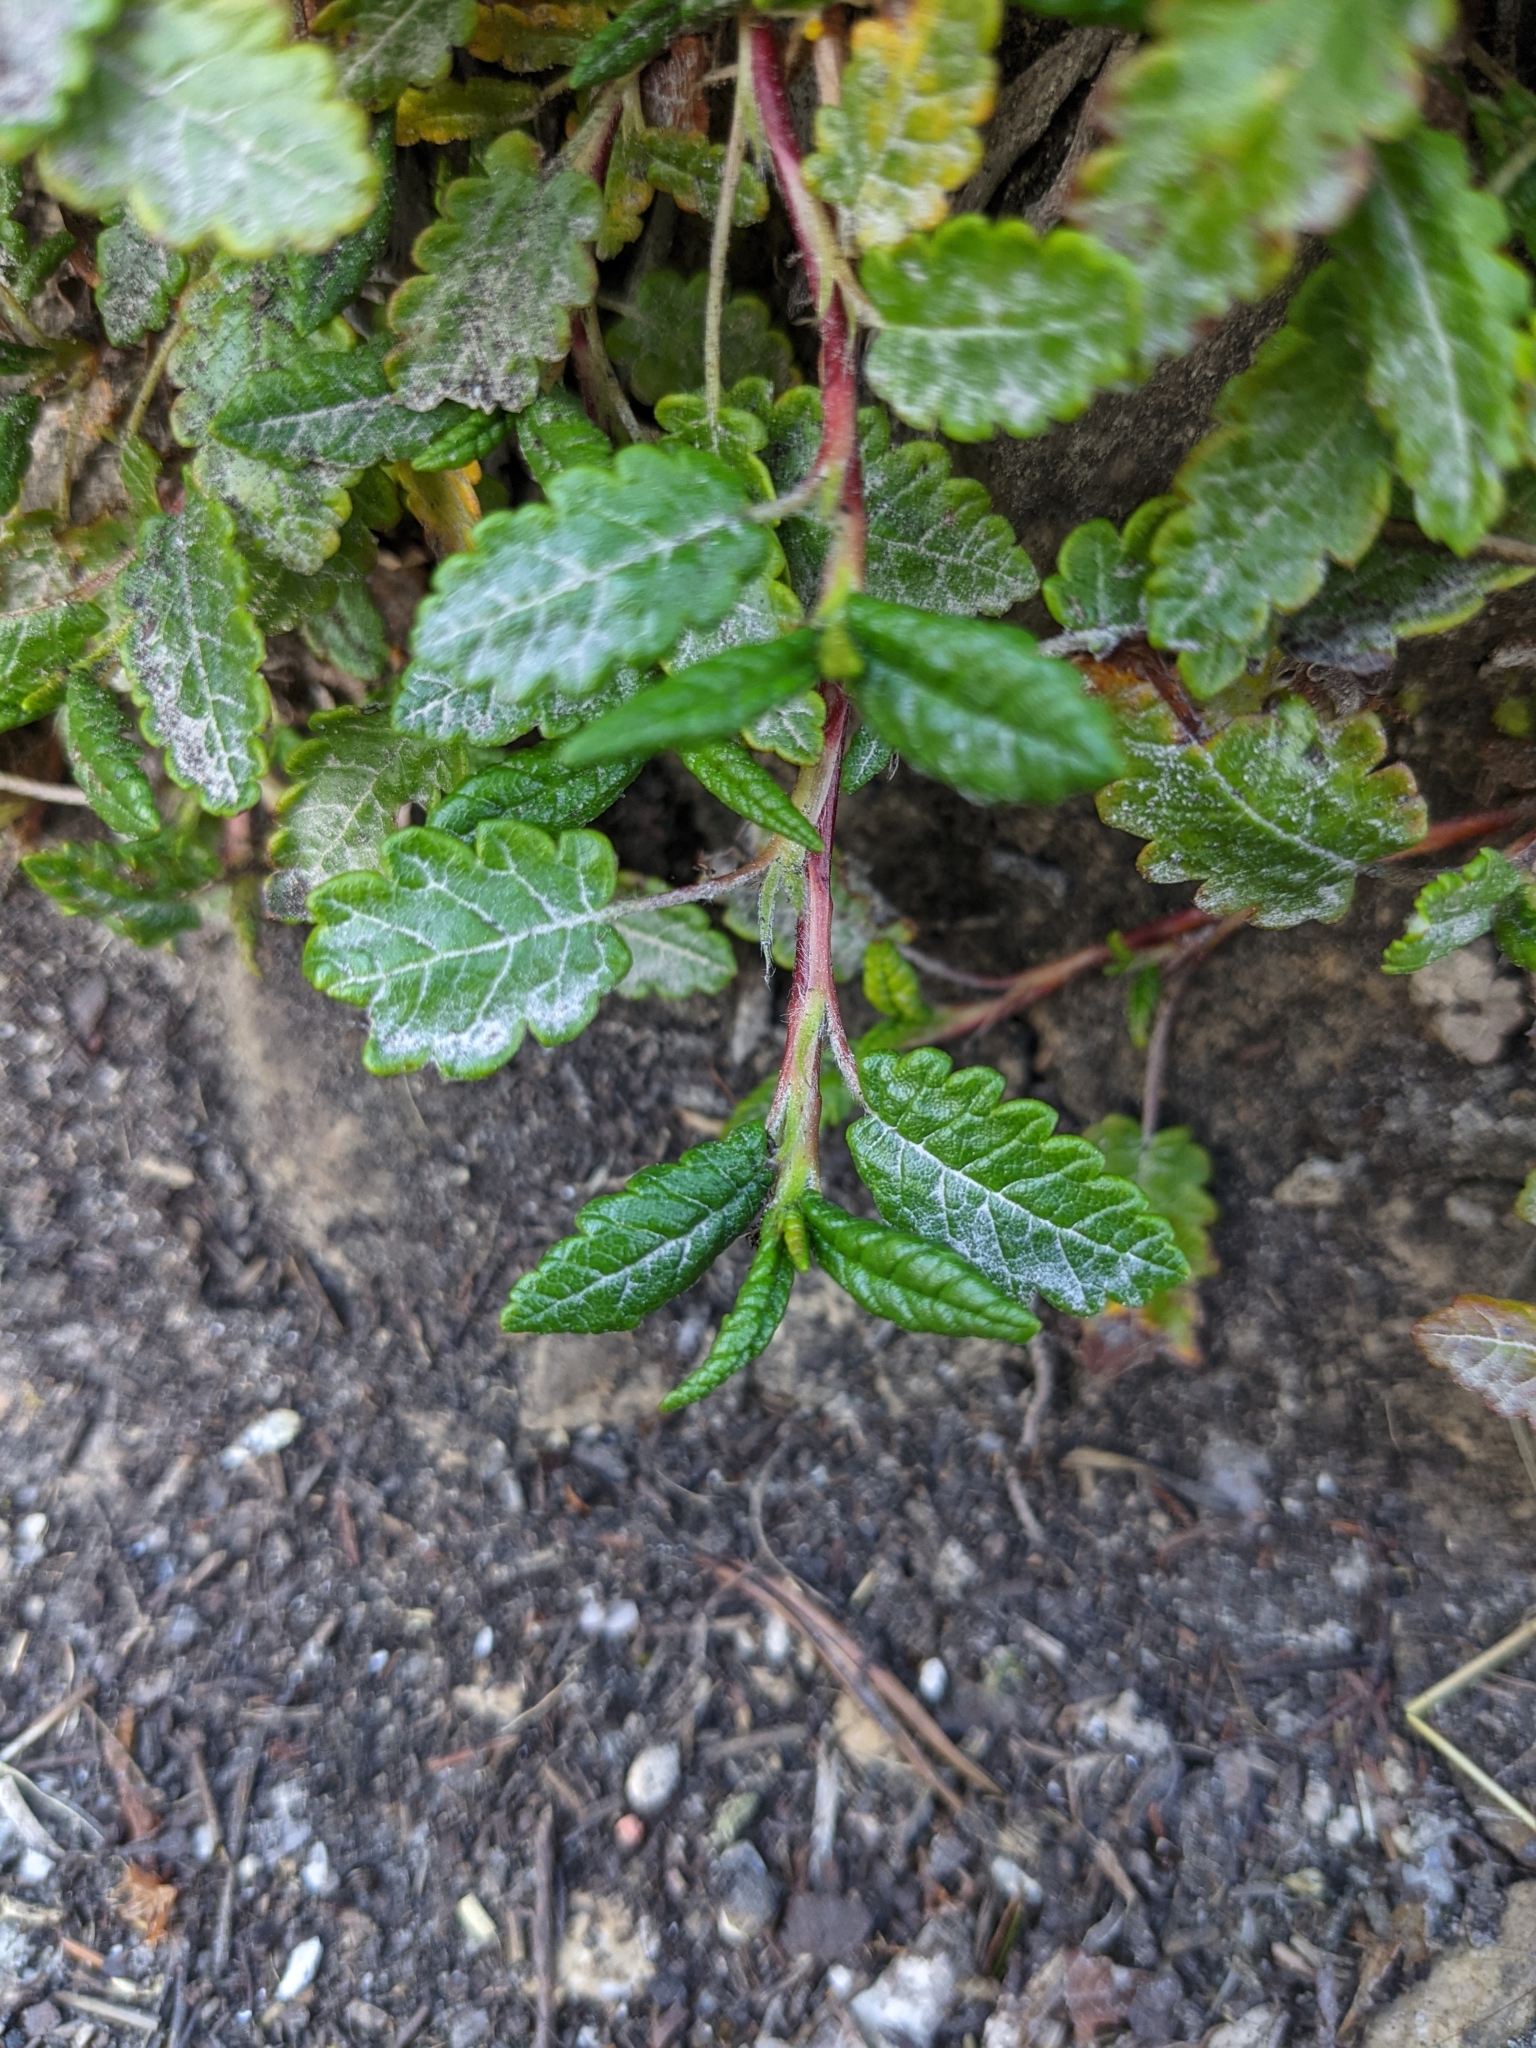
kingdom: Plantae
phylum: Tracheophyta
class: Magnoliopsida
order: Rosales
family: Rosaceae
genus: Dryas
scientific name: Dryas octopetala
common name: Eight-petal mountain-avens
